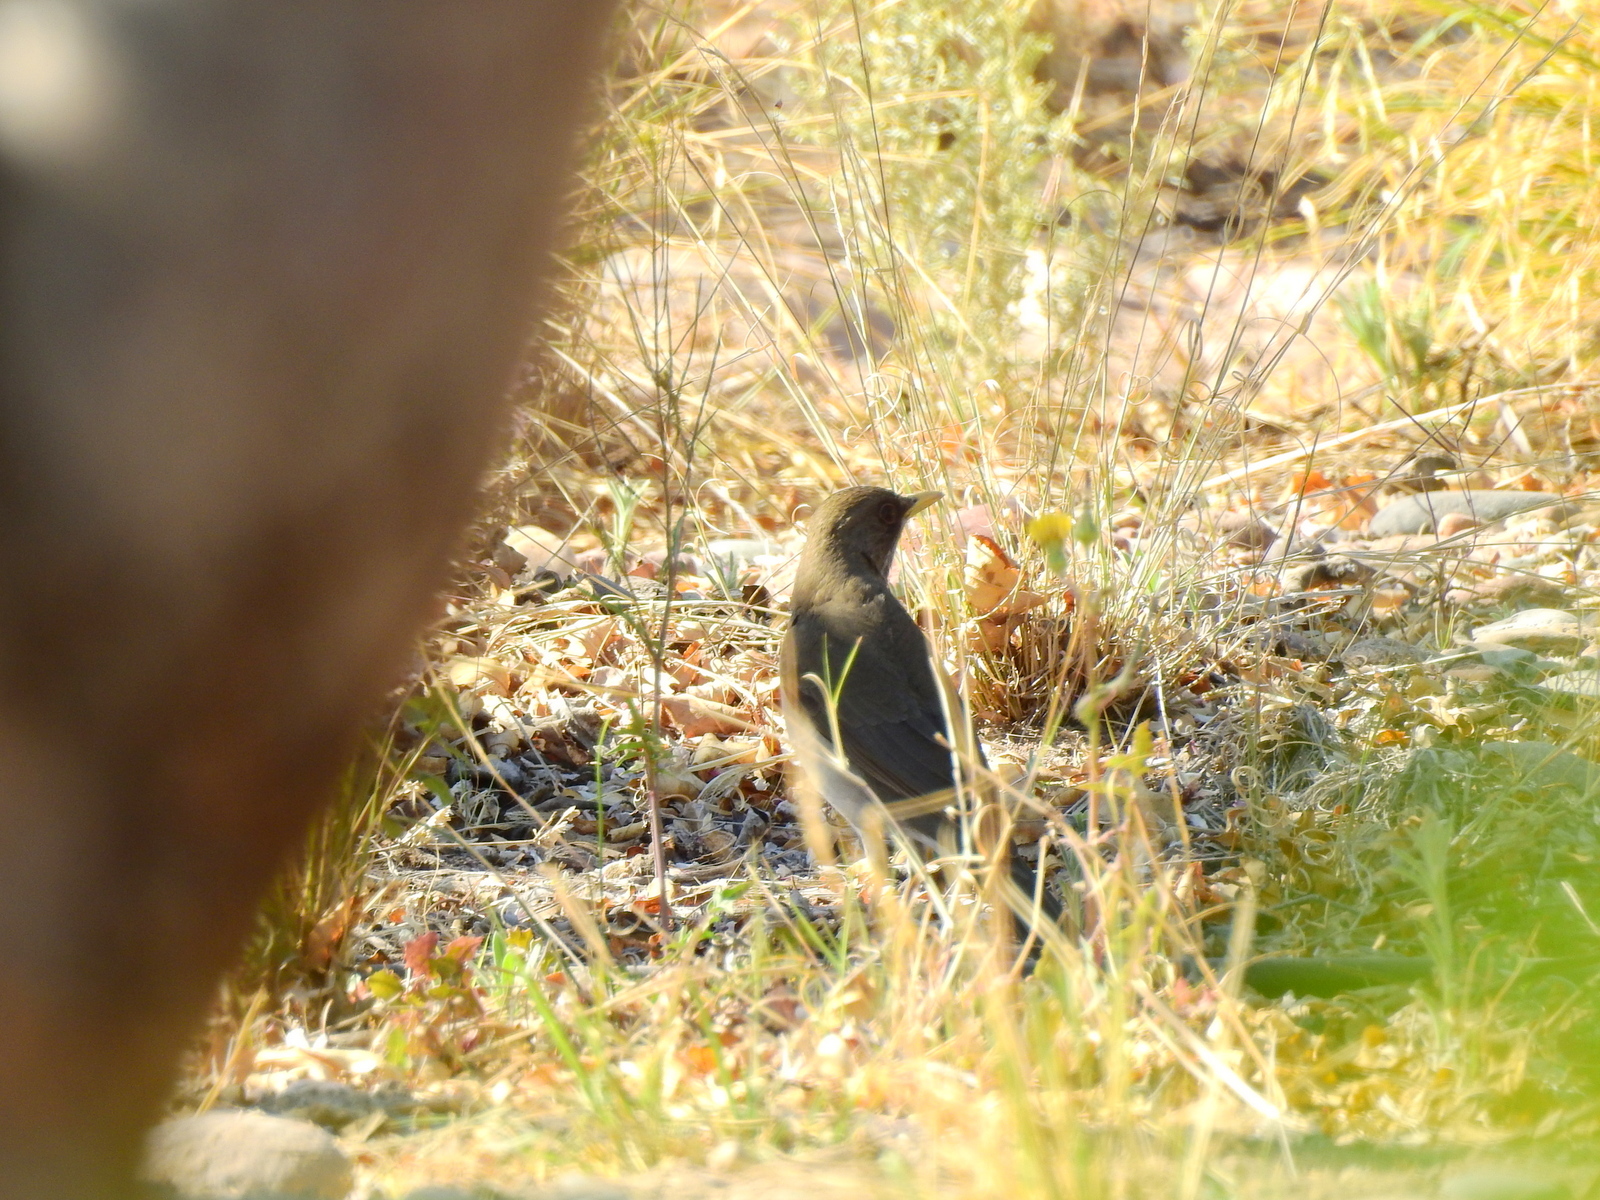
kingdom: Animalia
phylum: Chordata
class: Aves
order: Passeriformes
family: Turdidae
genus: Turdus
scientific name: Turdus amaurochalinus
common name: Creamy-bellied thrush
